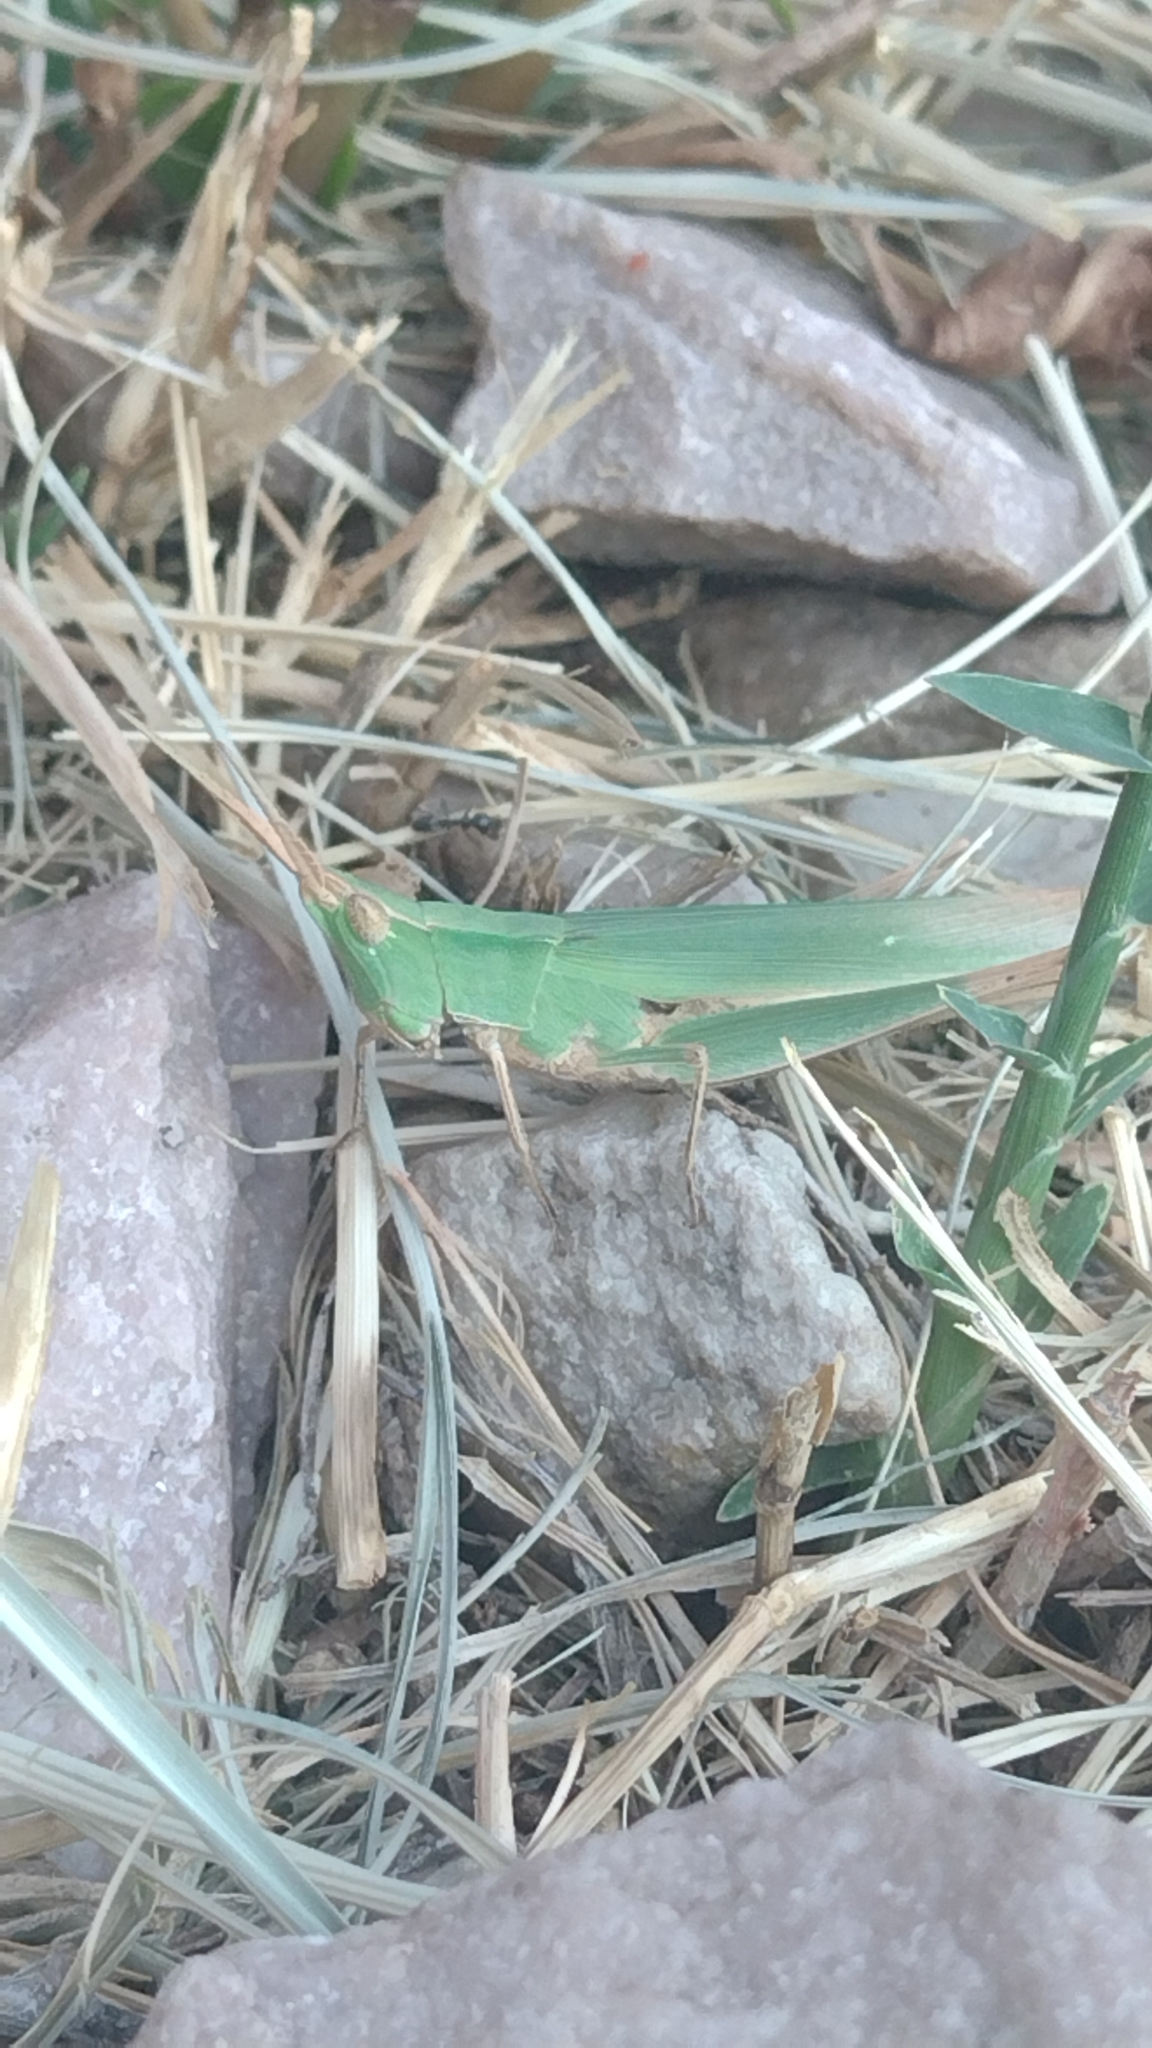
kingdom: Animalia
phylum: Arthropoda
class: Insecta
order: Orthoptera
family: Acrididae
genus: Allotruxalis
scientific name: Allotruxalis gracilis
